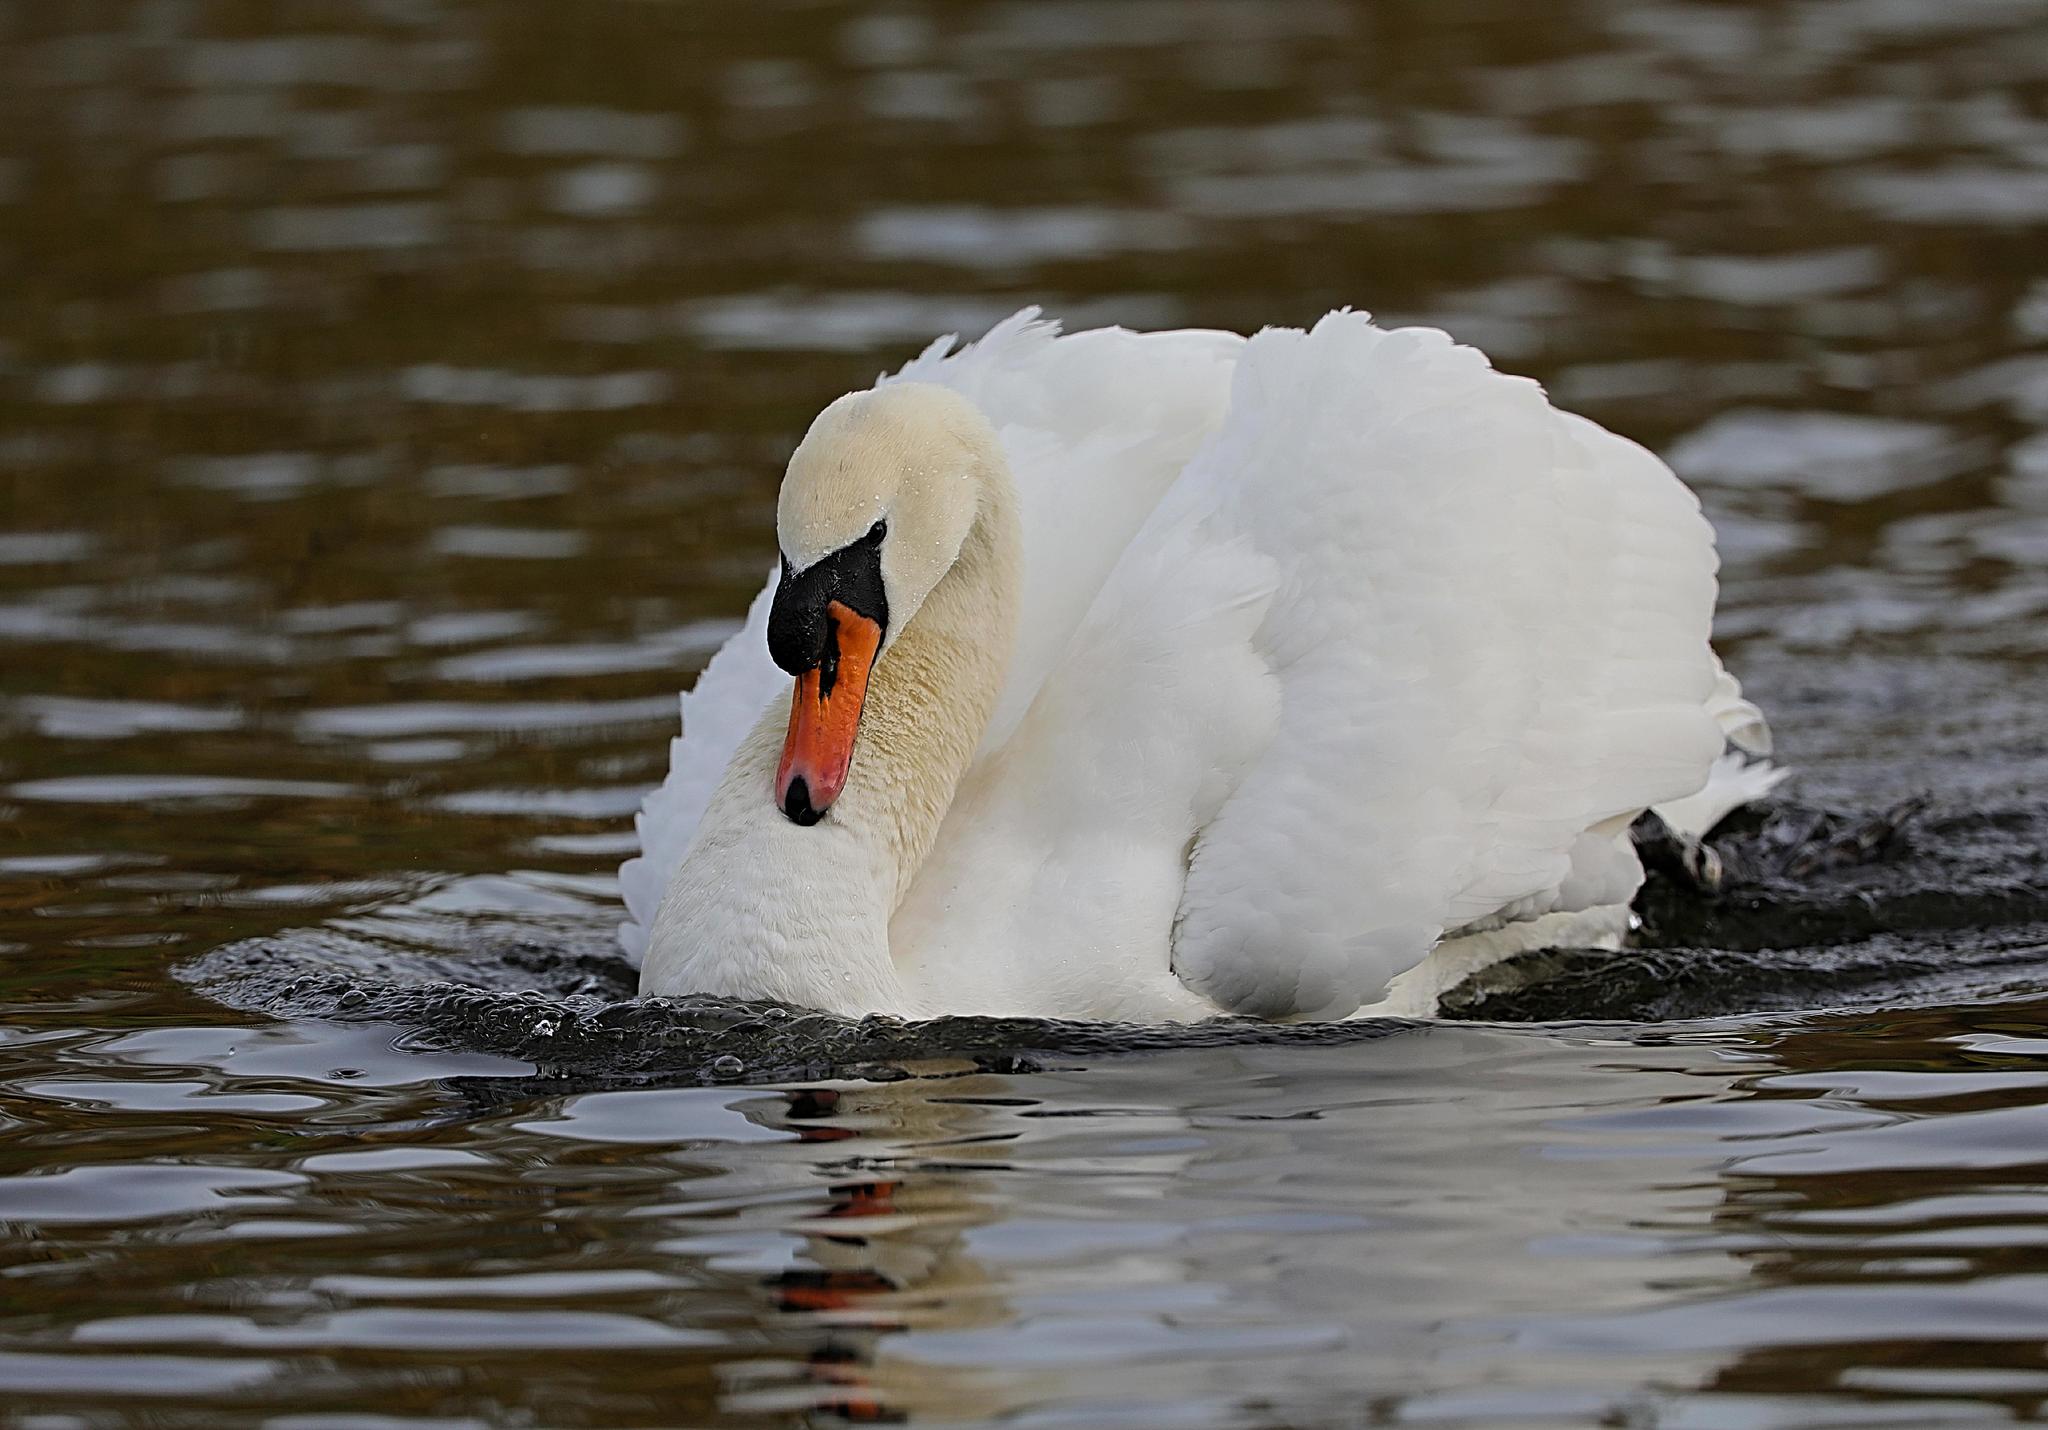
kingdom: Animalia
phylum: Chordata
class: Aves
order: Anseriformes
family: Anatidae
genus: Cygnus
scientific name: Cygnus olor
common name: Mute swan
